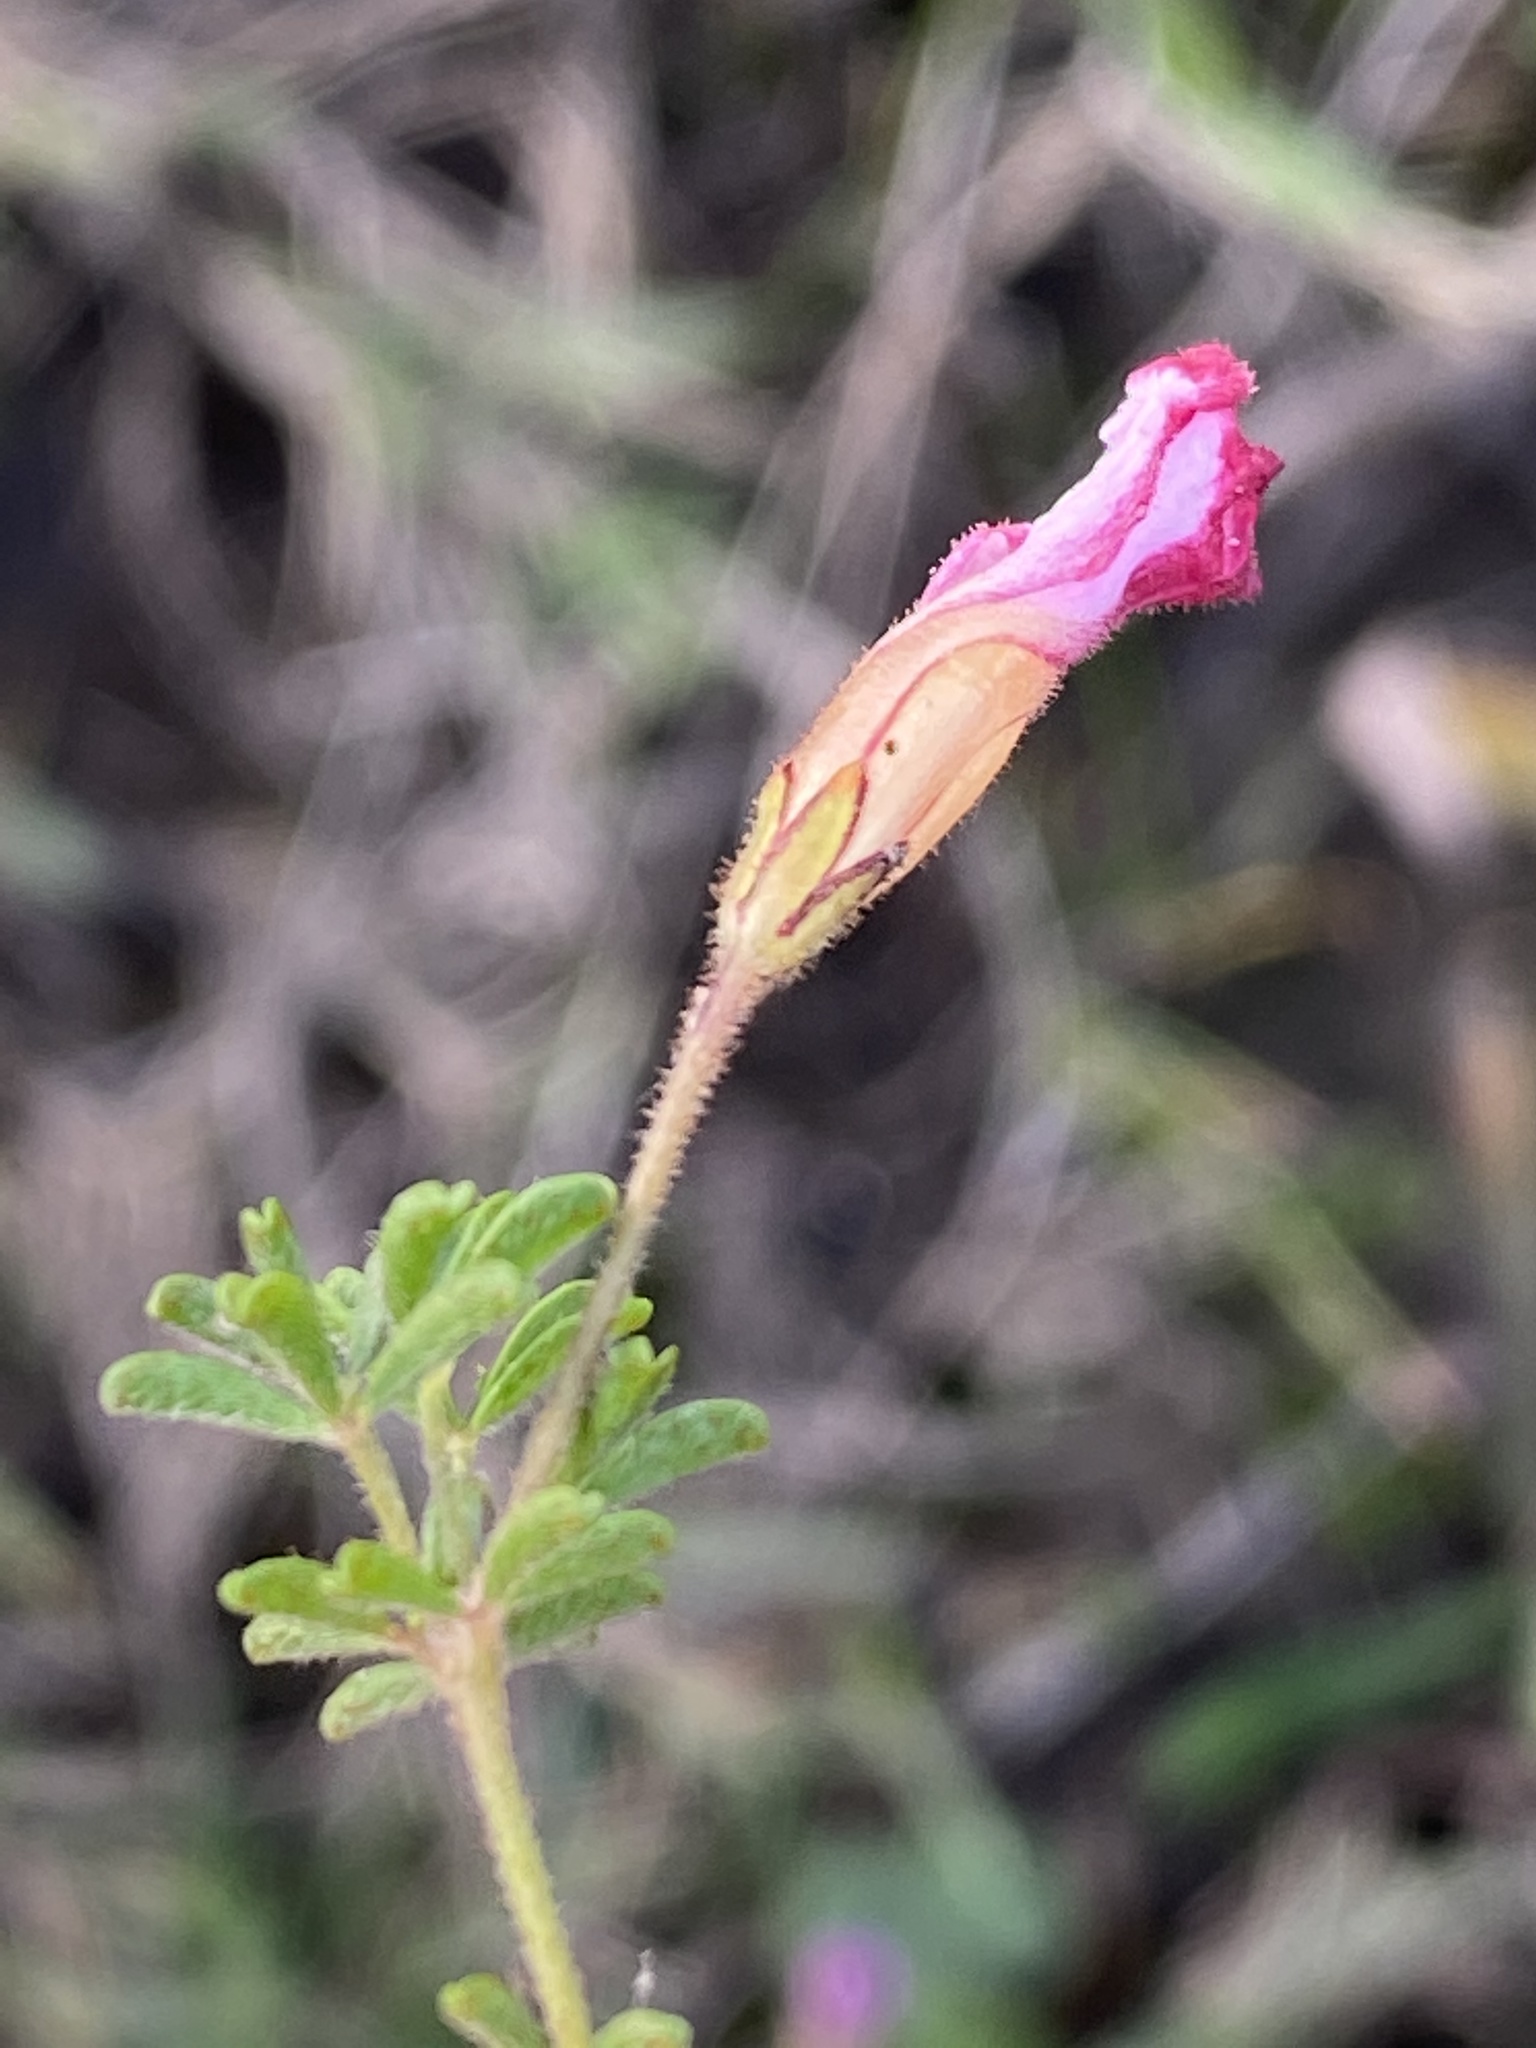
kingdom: Plantae
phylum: Tracheophyta
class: Magnoliopsida
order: Oxalidales
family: Oxalidaceae
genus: Oxalis
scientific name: Oxalis multicaulis
